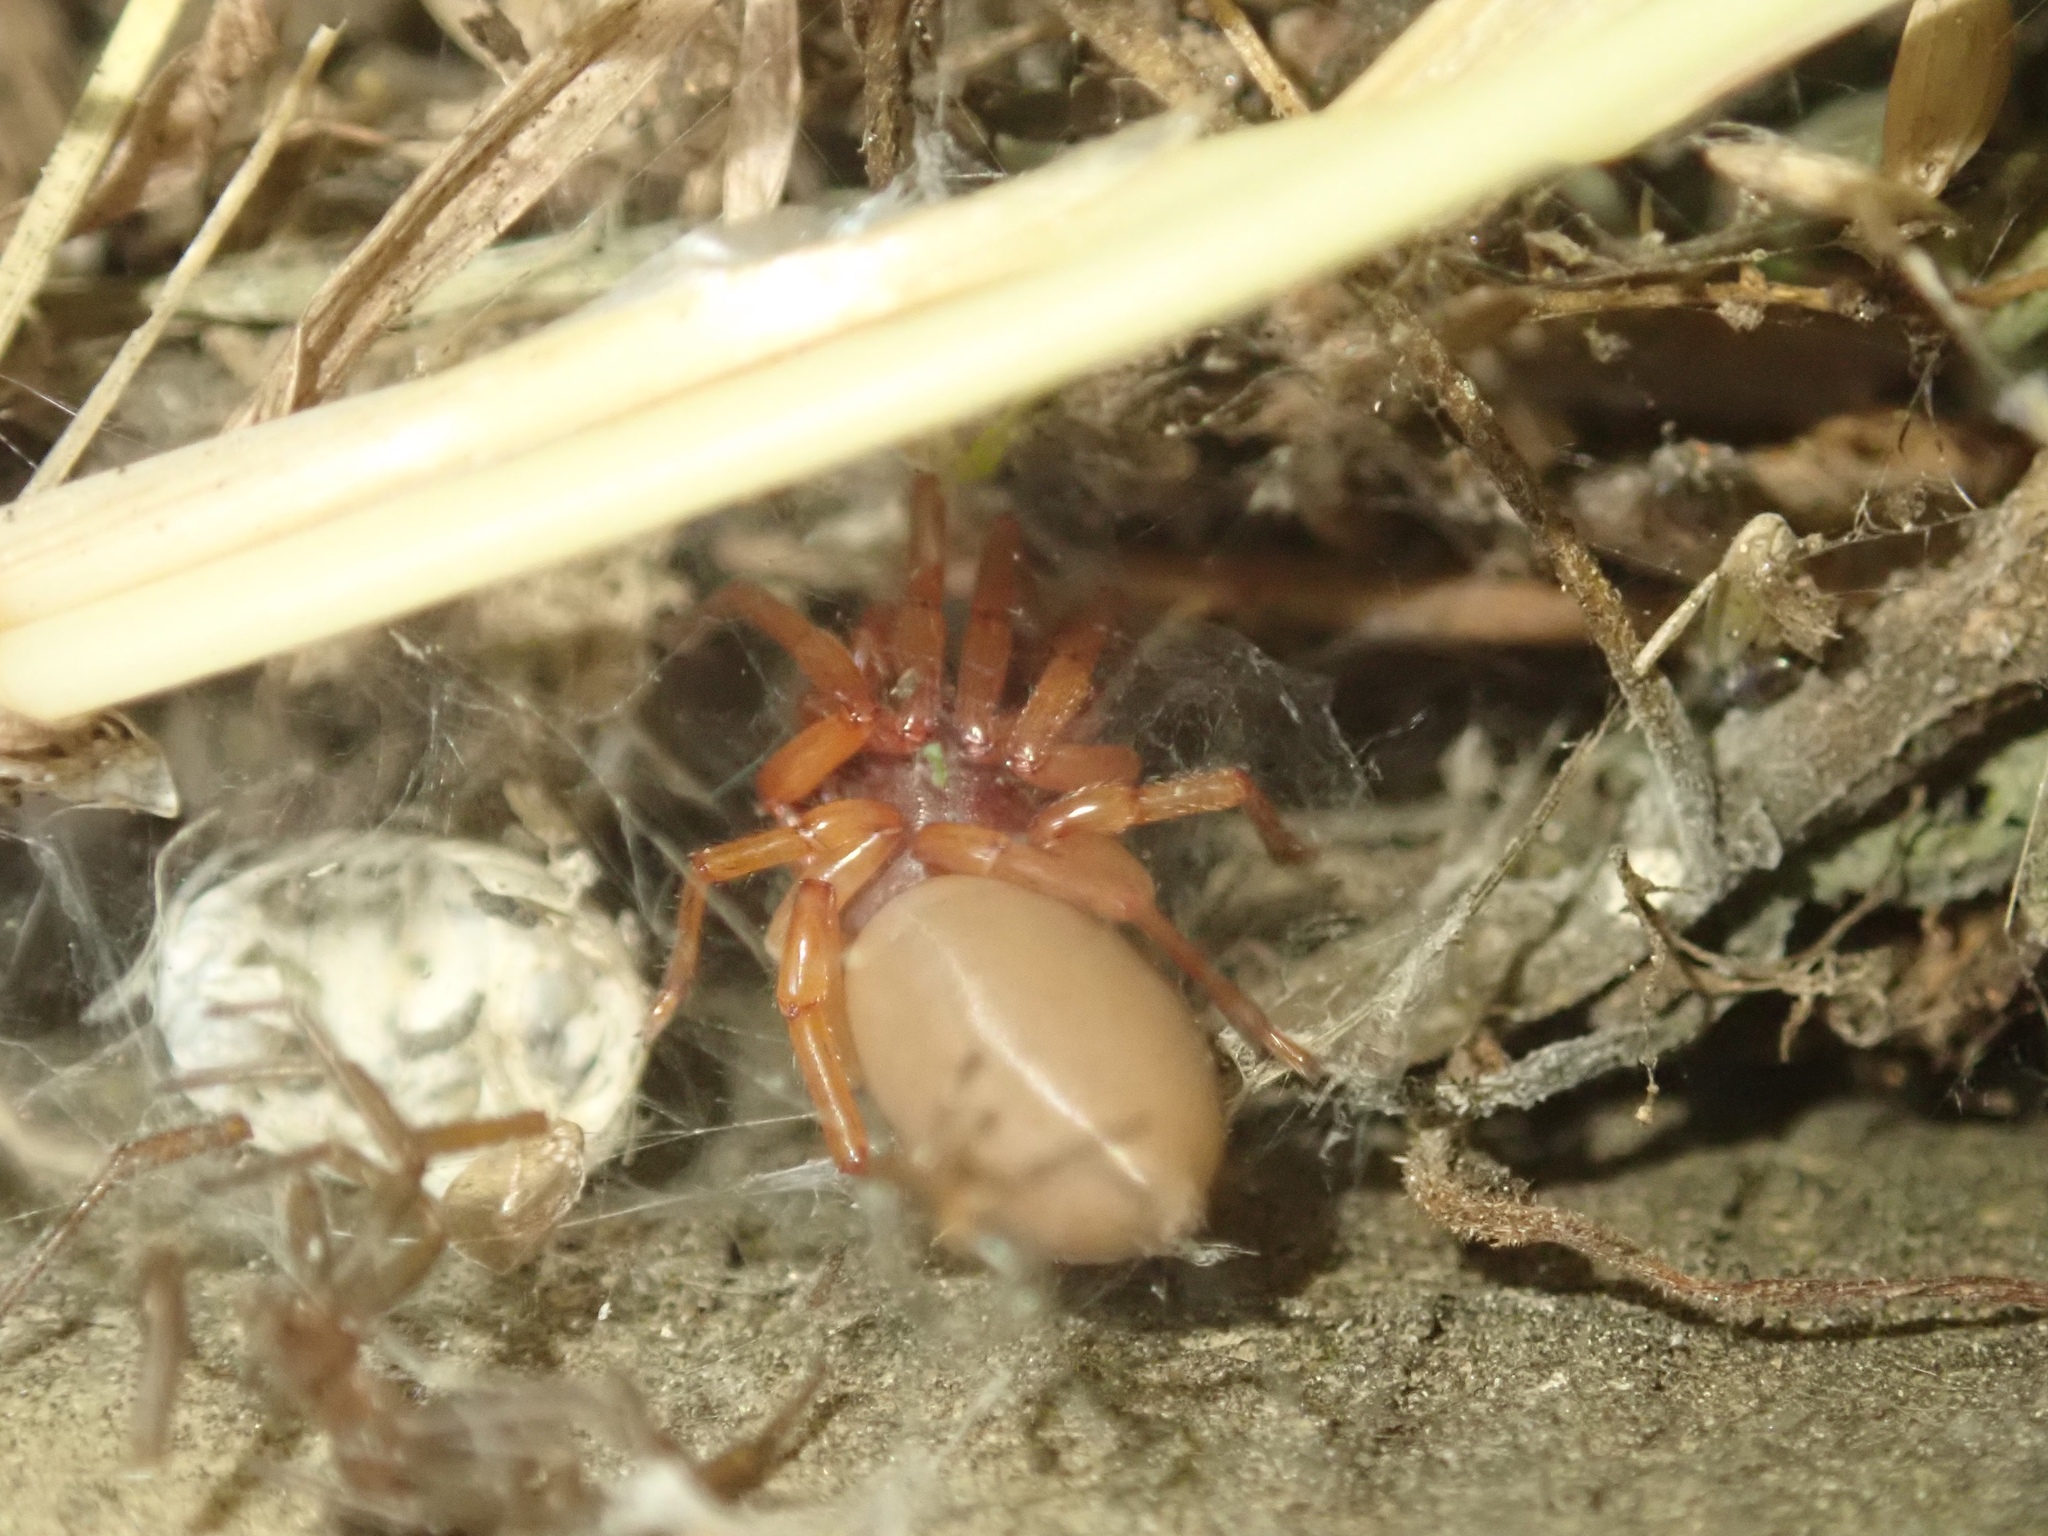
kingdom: Animalia
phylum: Arthropoda
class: Arachnida
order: Araneae
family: Dysderidae
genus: Dysdera
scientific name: Dysdera crocata
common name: Woodlouse spider
